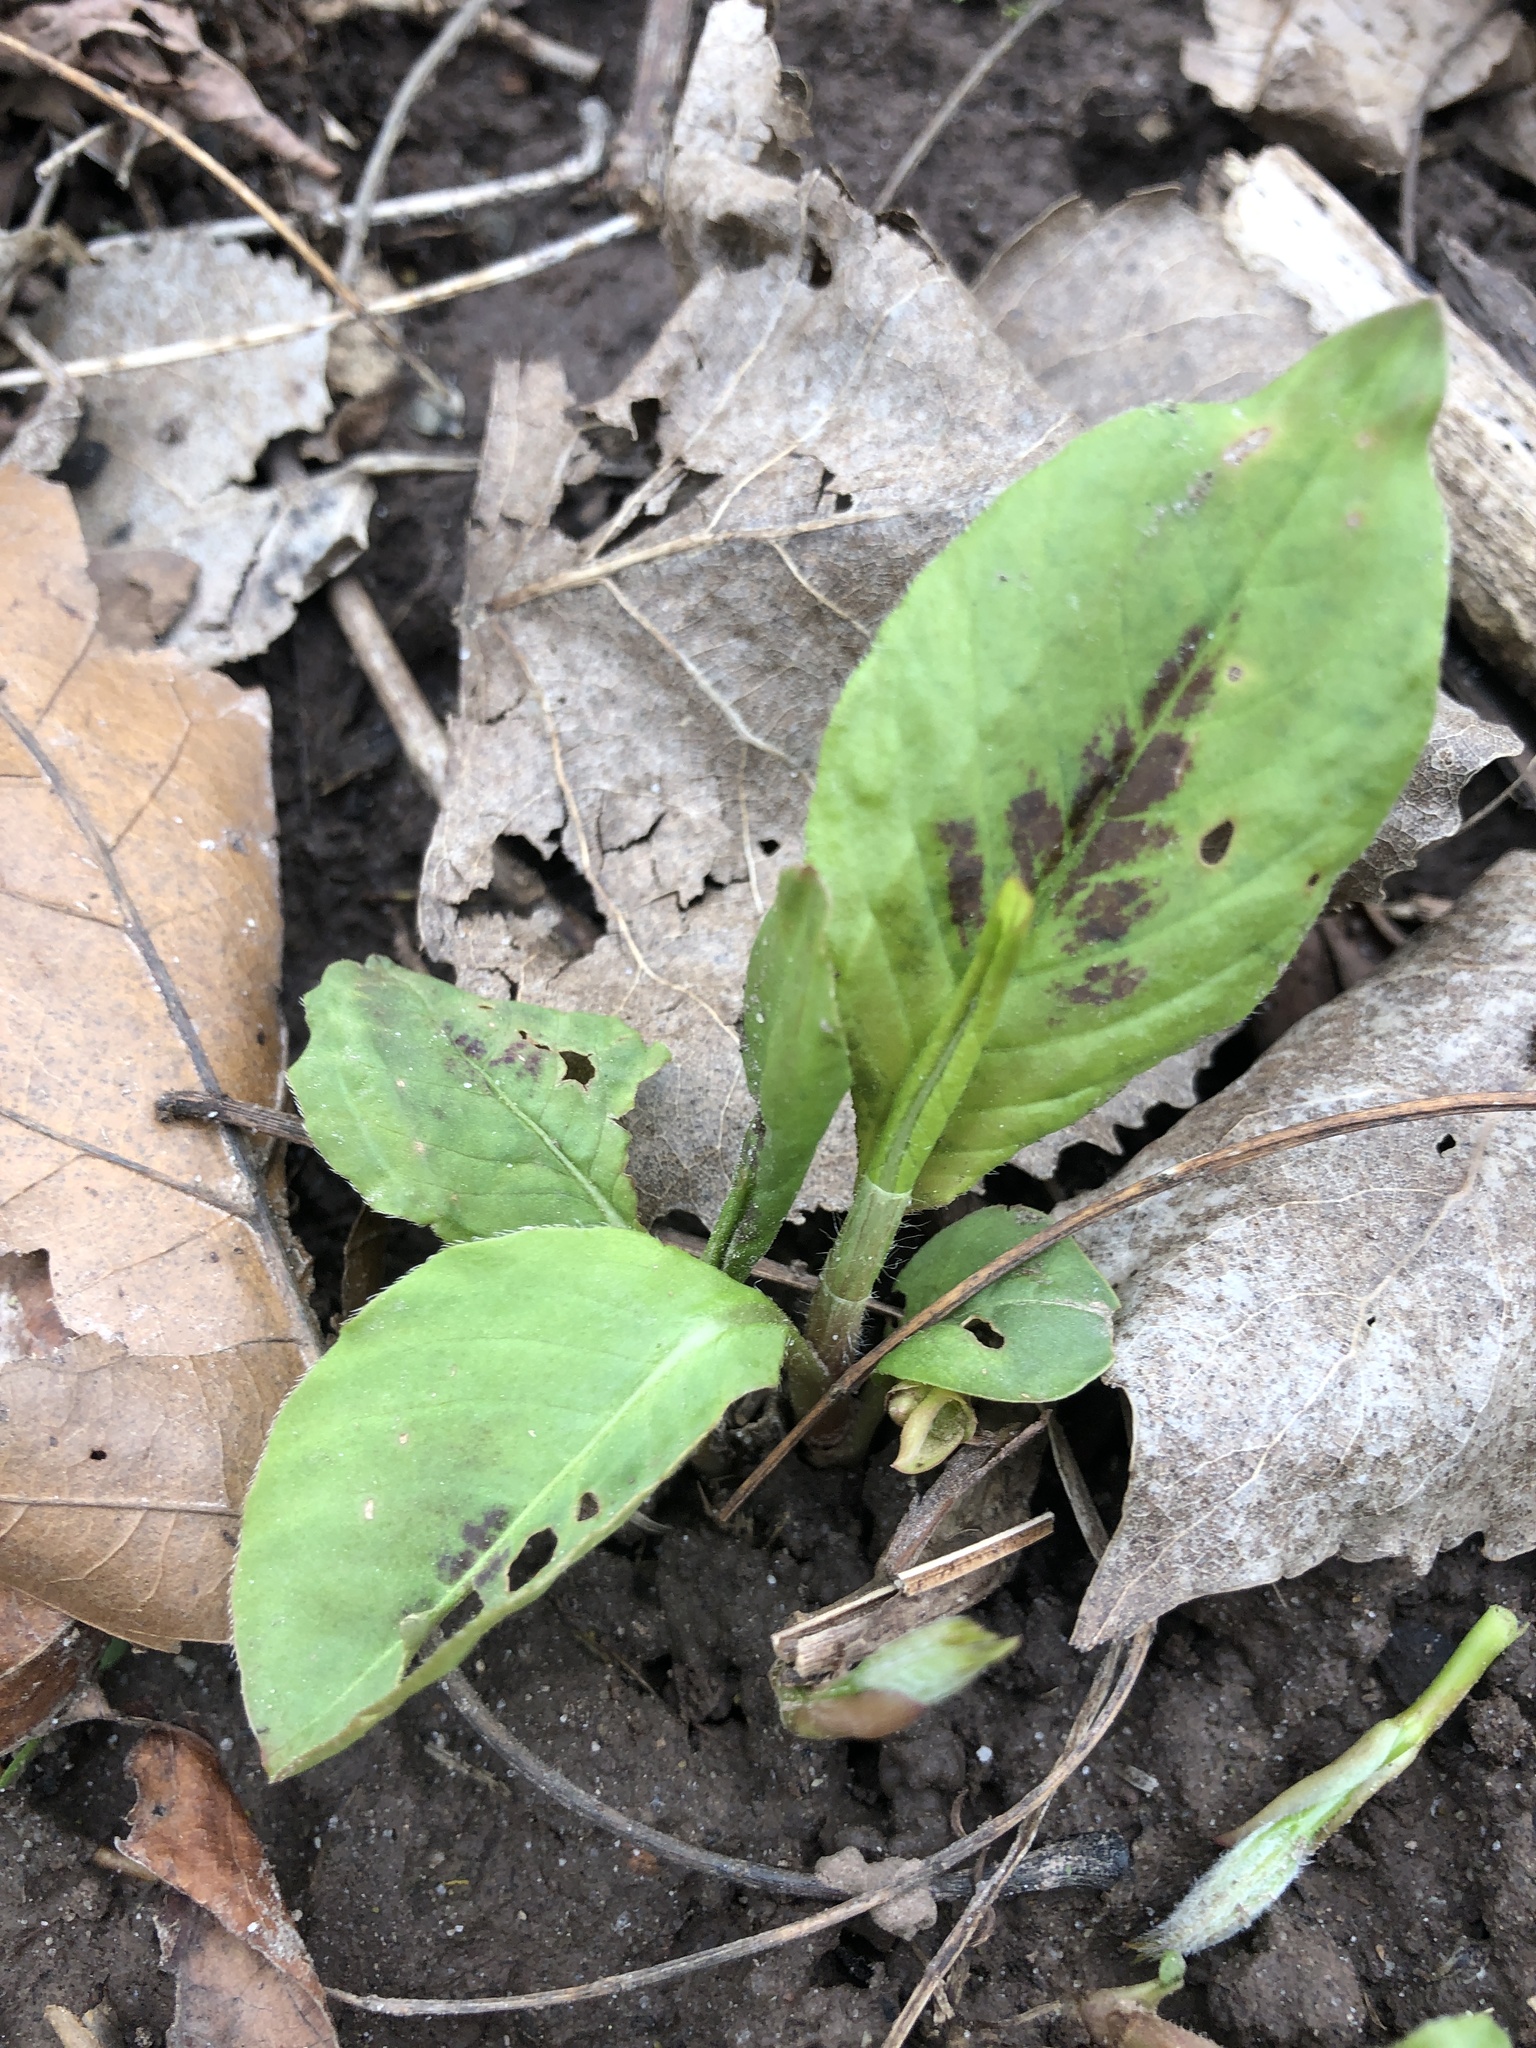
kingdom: Plantae
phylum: Tracheophyta
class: Magnoliopsida
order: Caryophyllales
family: Polygonaceae
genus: Persicaria
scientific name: Persicaria virginiana
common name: Jumpseed
